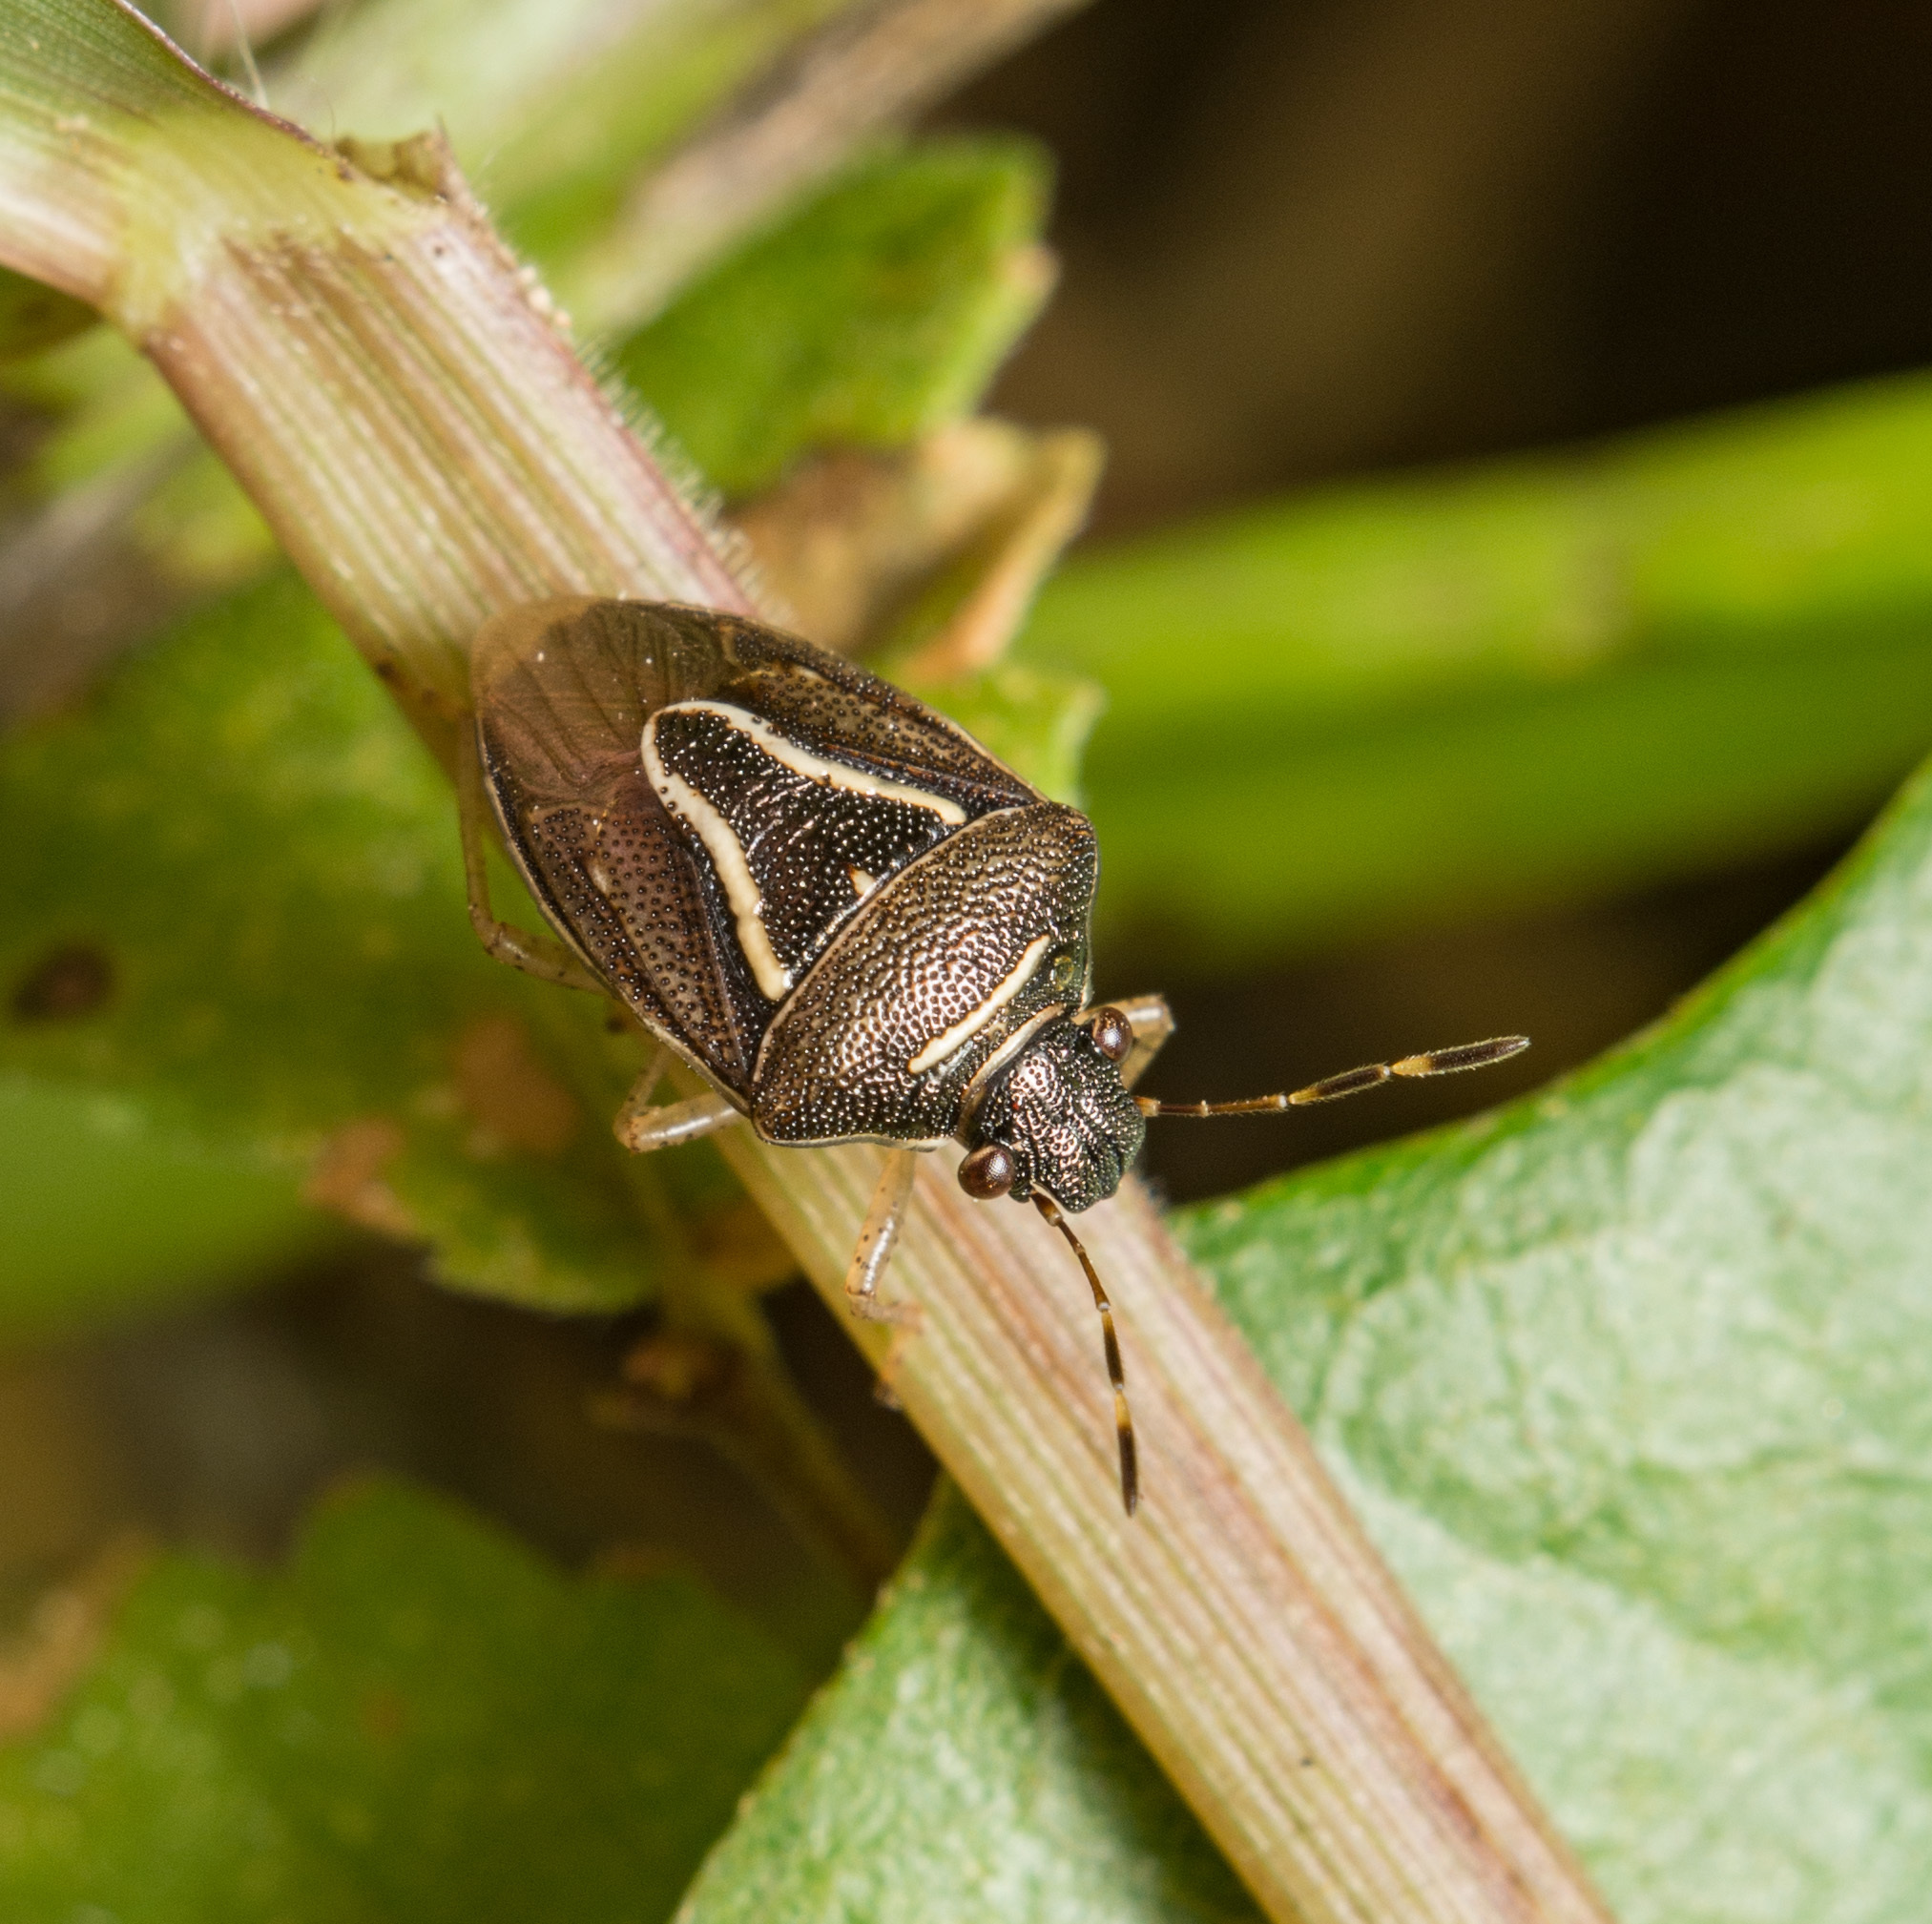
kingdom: Animalia
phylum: Arthropoda
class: Insecta
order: Hemiptera
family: Pentatomidae
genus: Mormidea
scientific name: Mormidea lugens
